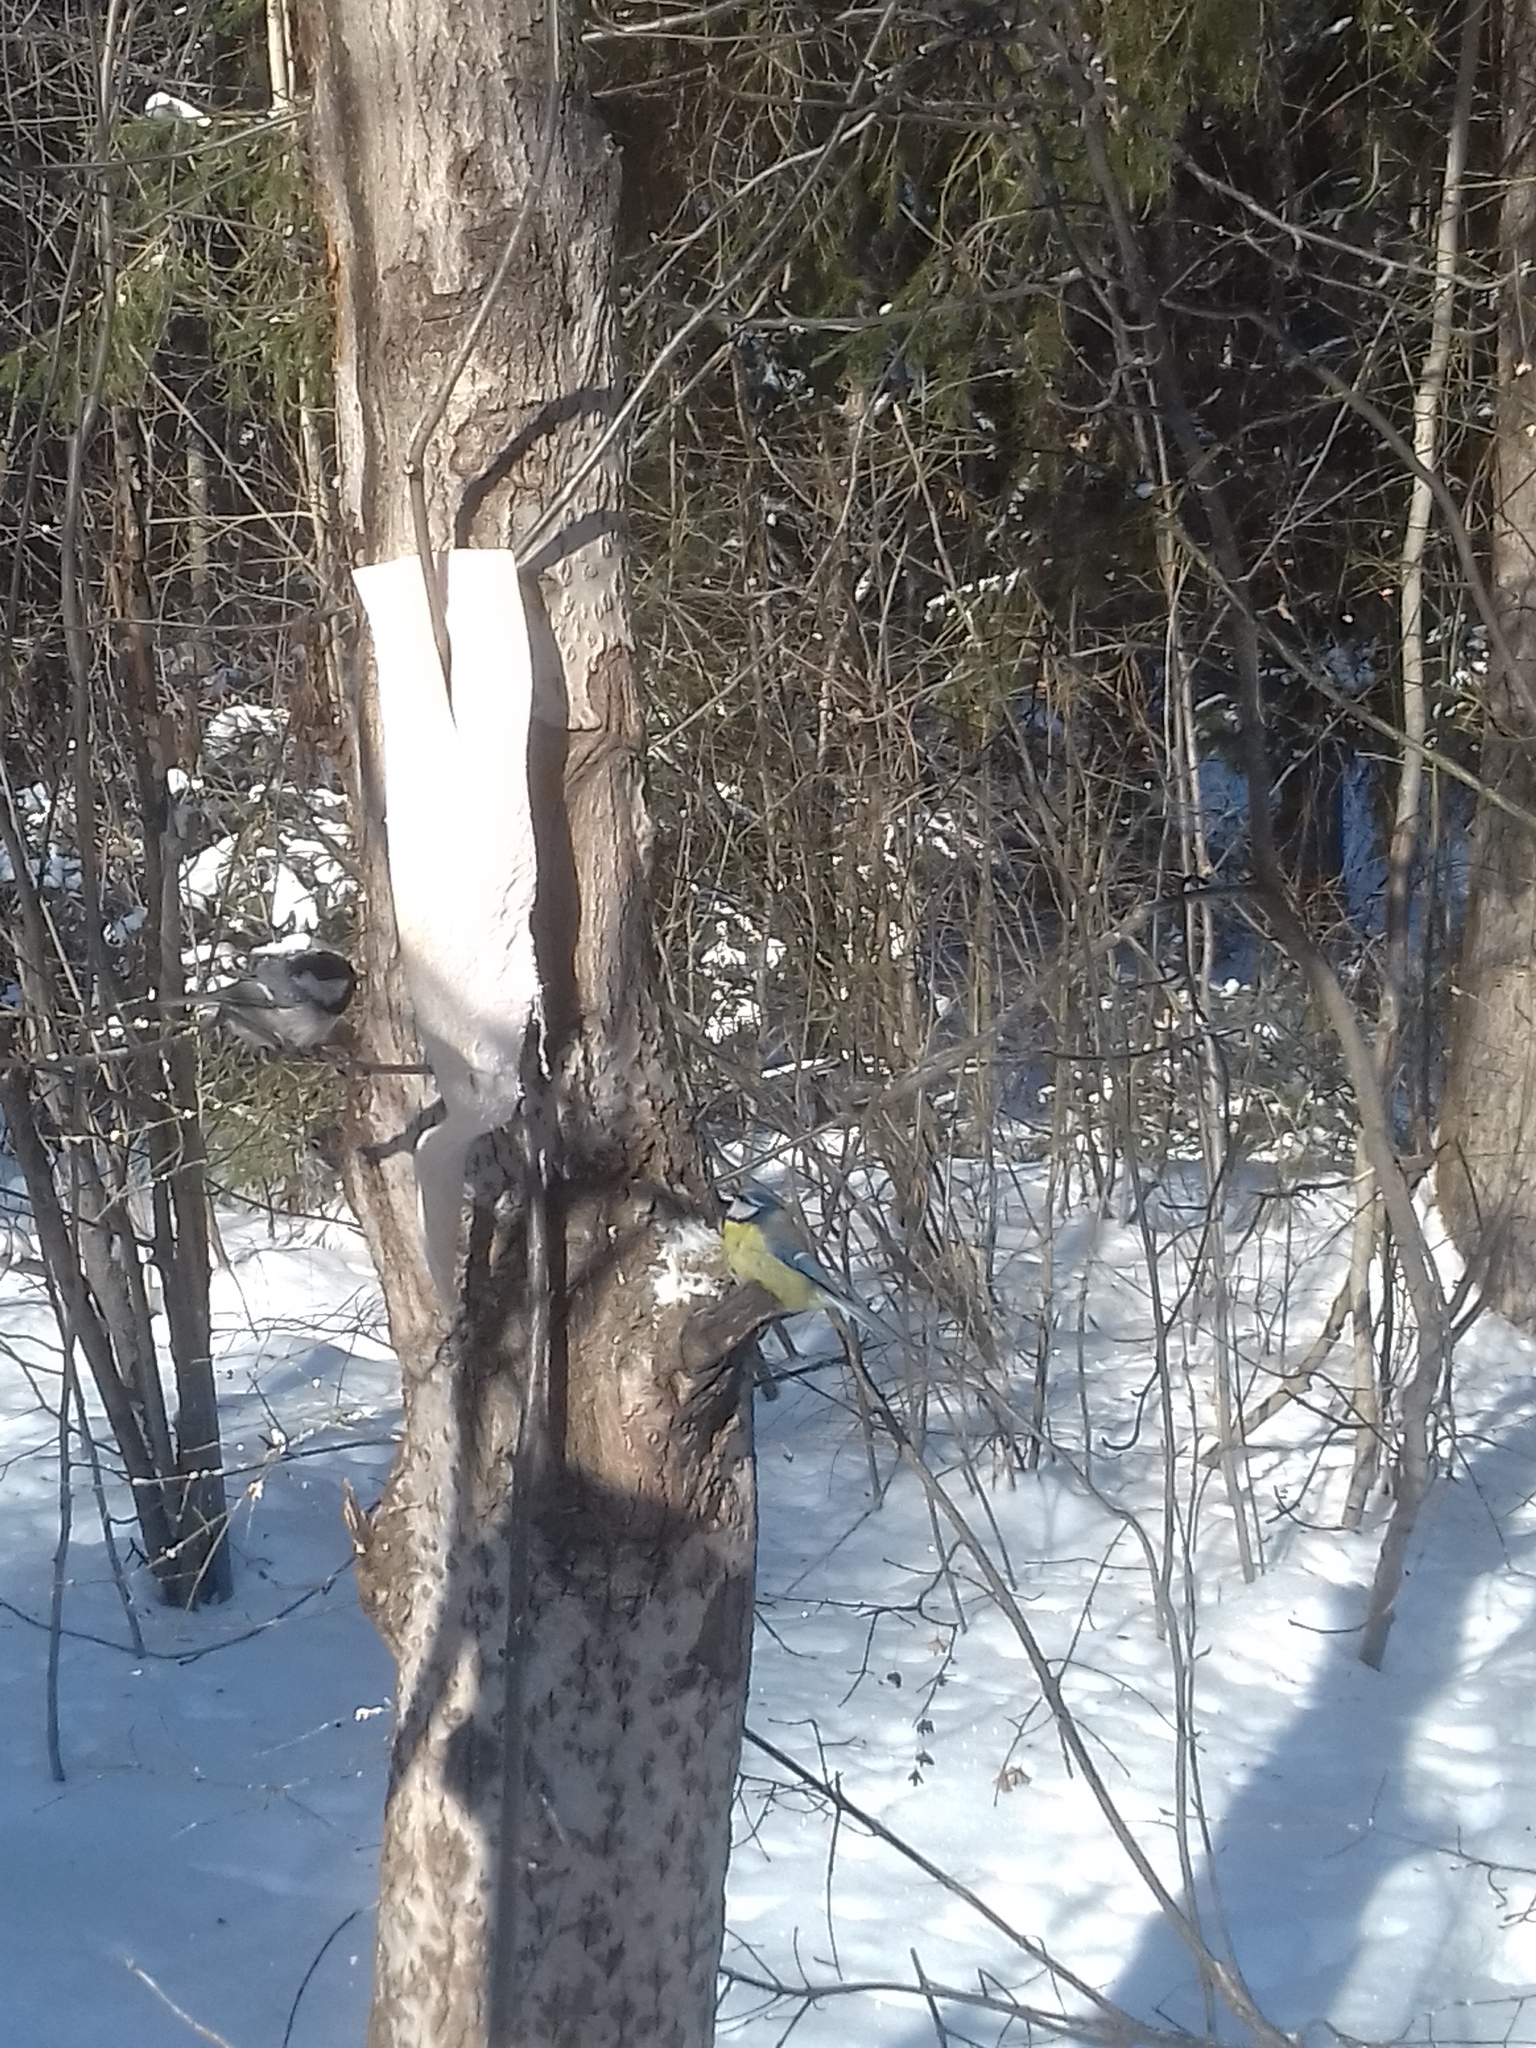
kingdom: Animalia
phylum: Chordata
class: Aves
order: Passeriformes
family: Paridae
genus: Cyanistes
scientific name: Cyanistes caeruleus
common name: Eurasian blue tit
